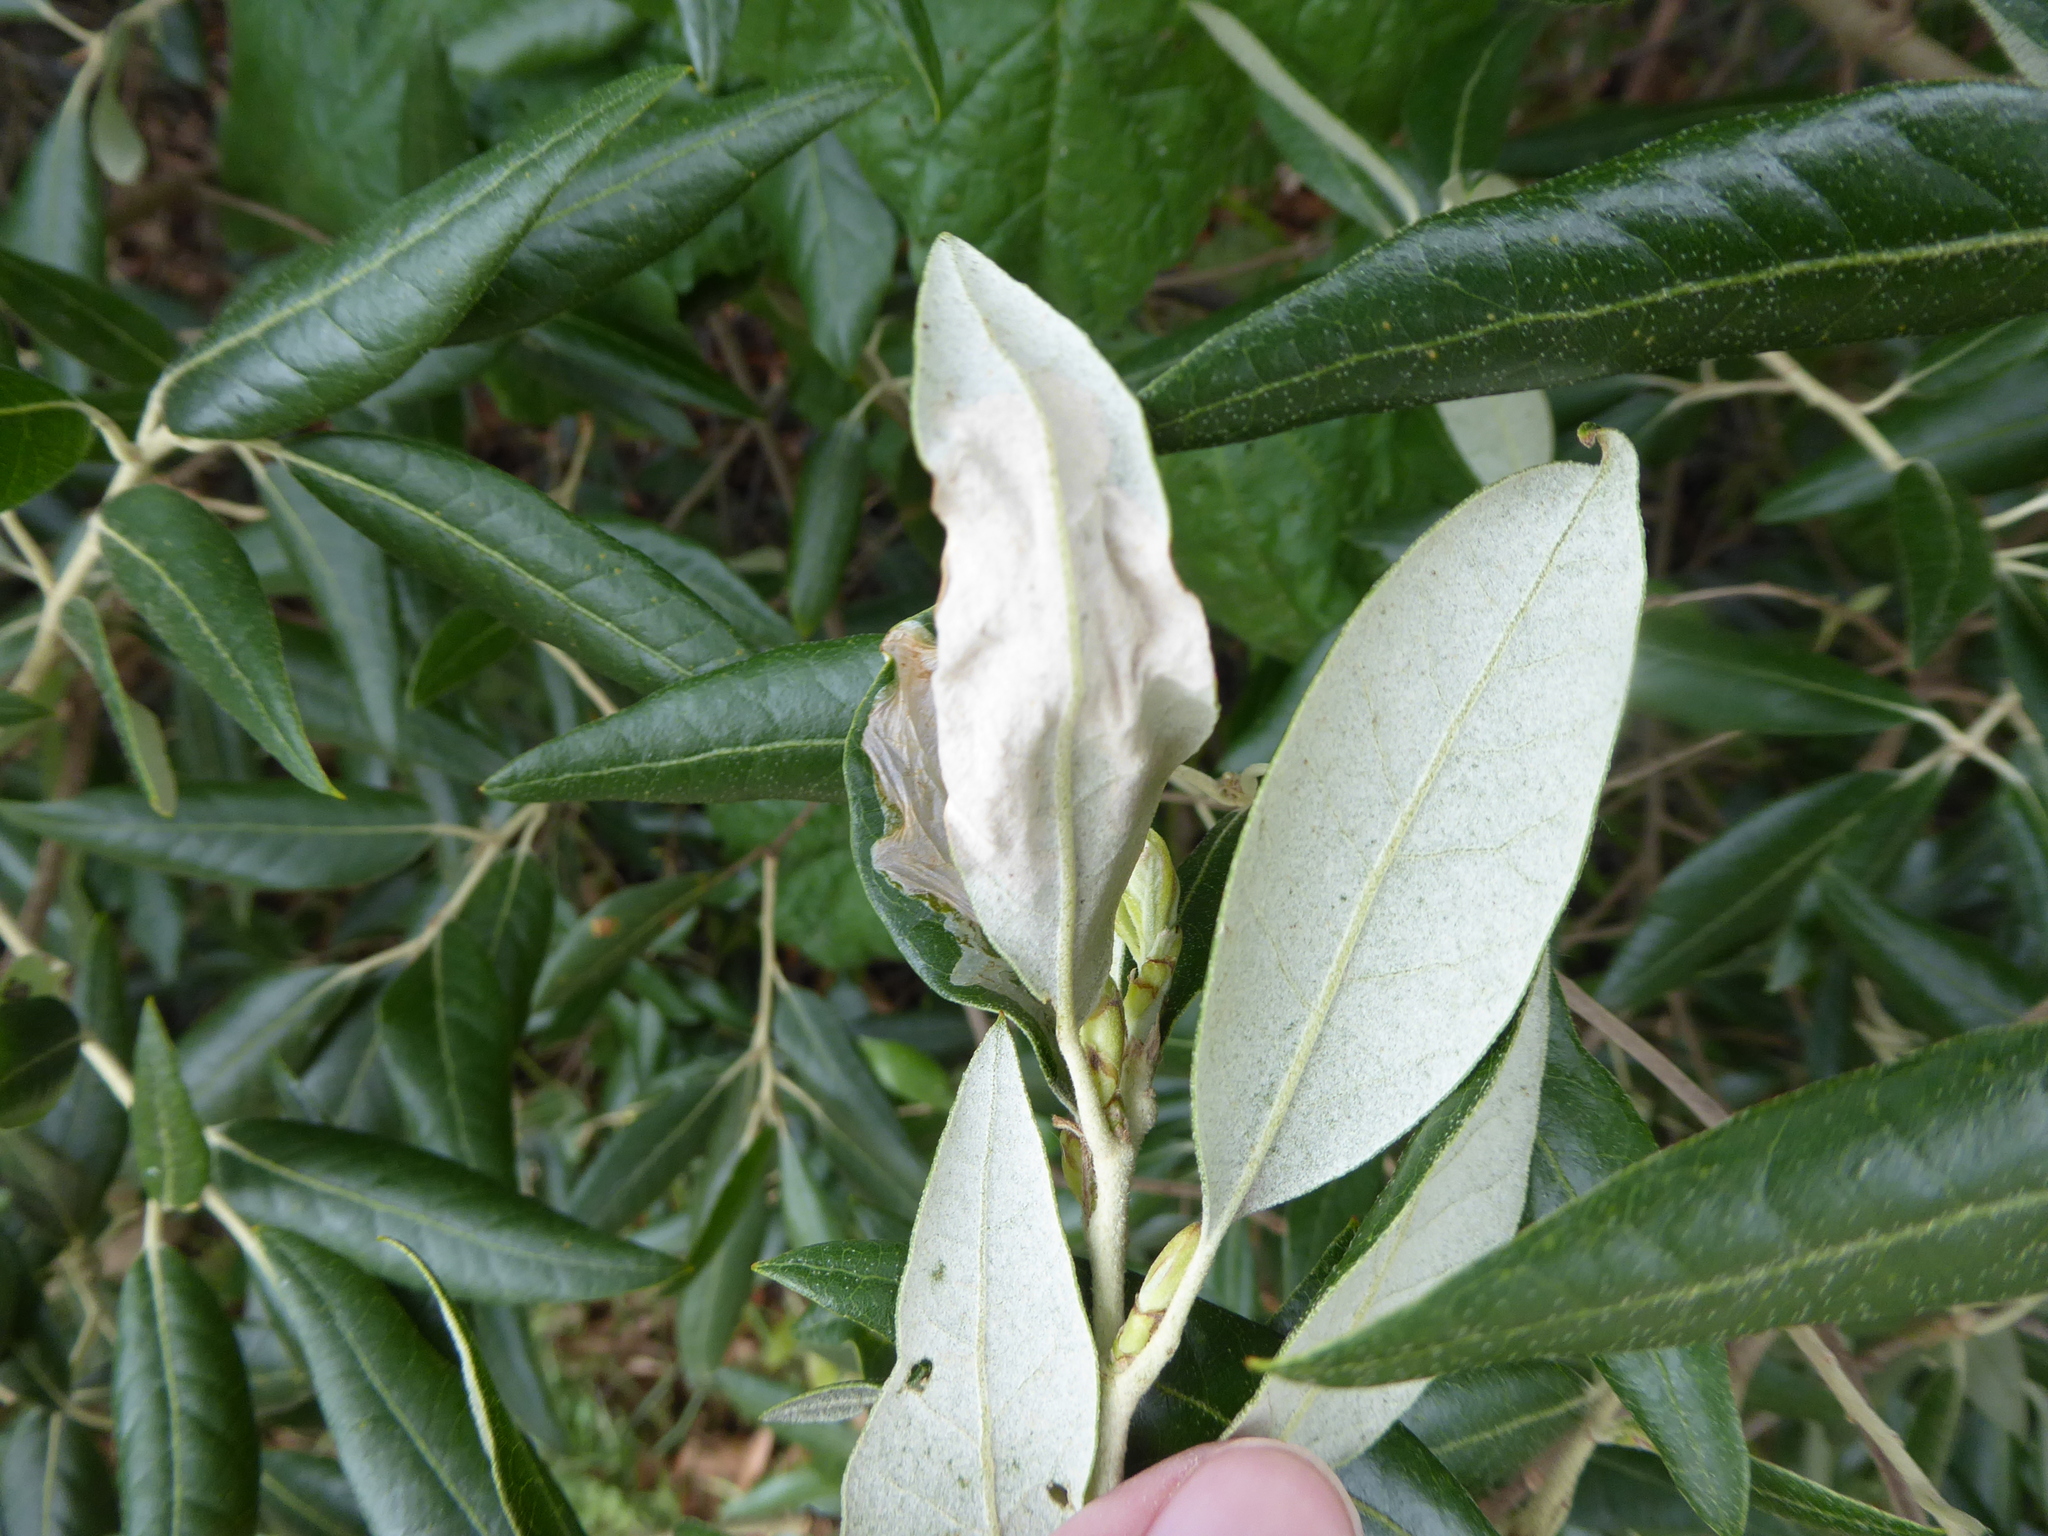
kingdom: Animalia
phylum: Arthropoda
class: Insecta
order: Lepidoptera
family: Gracillariidae
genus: Acrocercops
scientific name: Acrocercops brongniardella
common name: Brown oak slender
